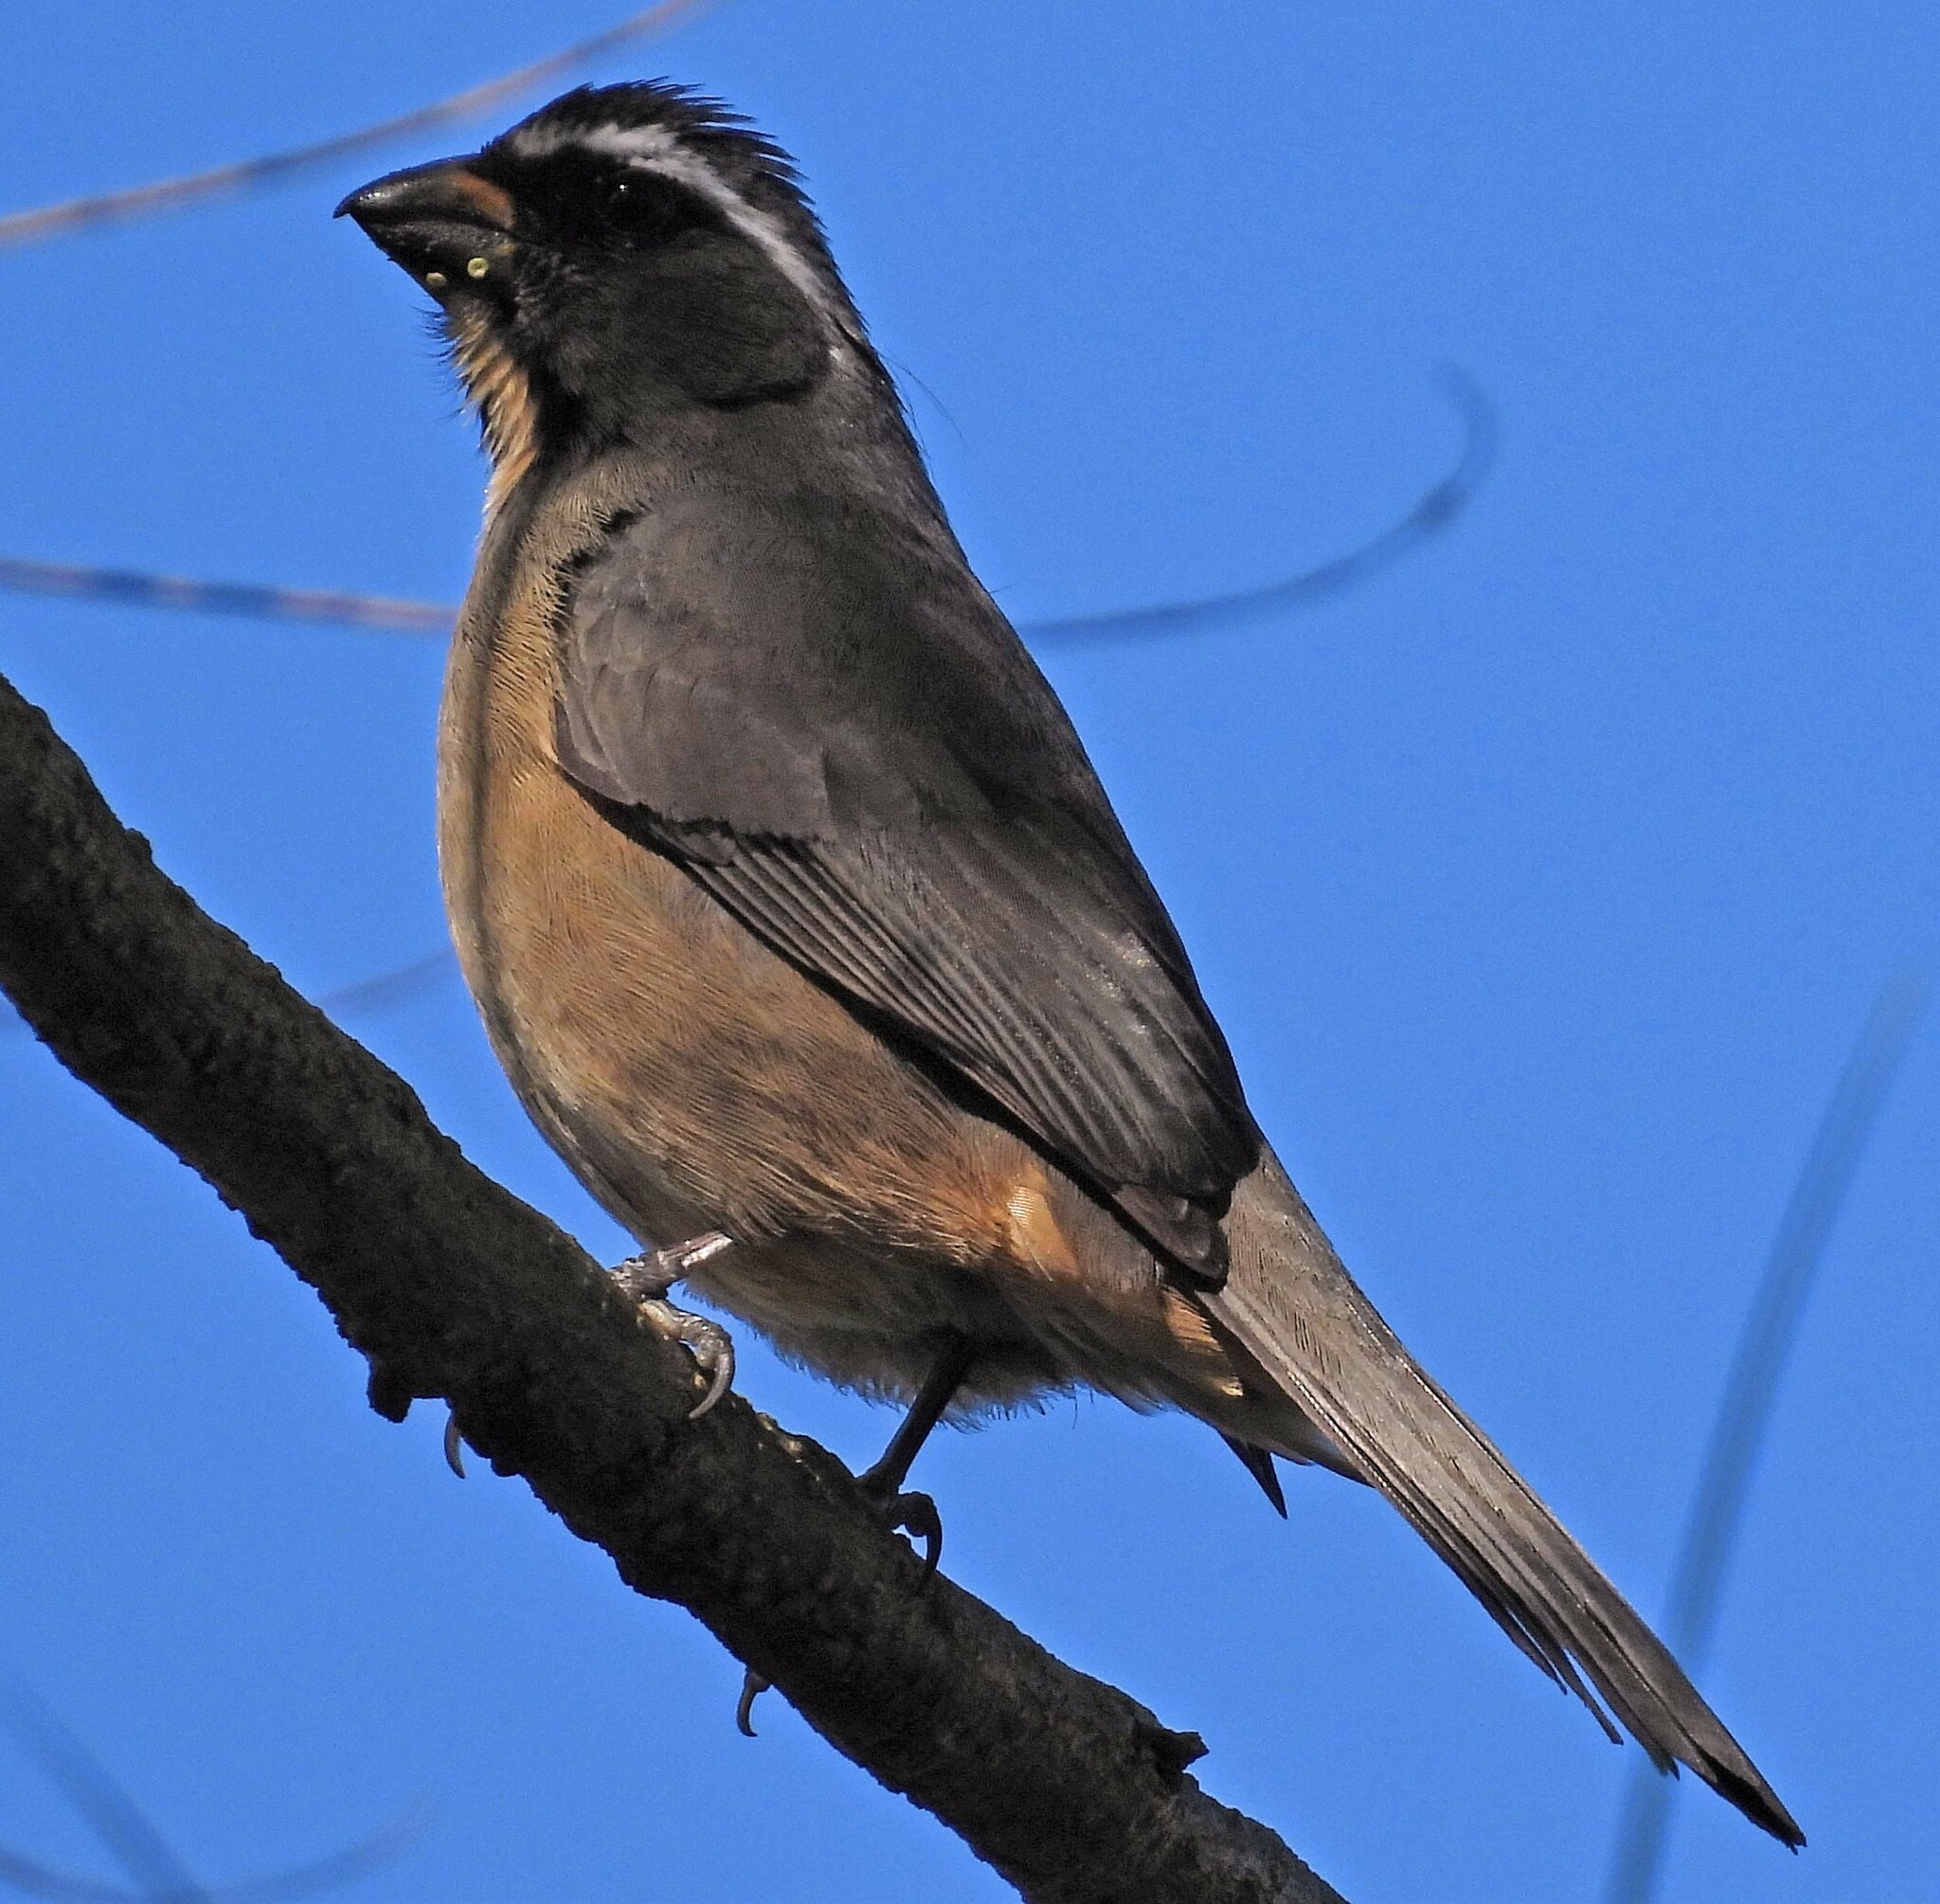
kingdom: Animalia
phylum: Chordata
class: Aves
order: Passeriformes
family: Thraupidae
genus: Saltator
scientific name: Saltator maxillosus
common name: Thick-billed saltator
